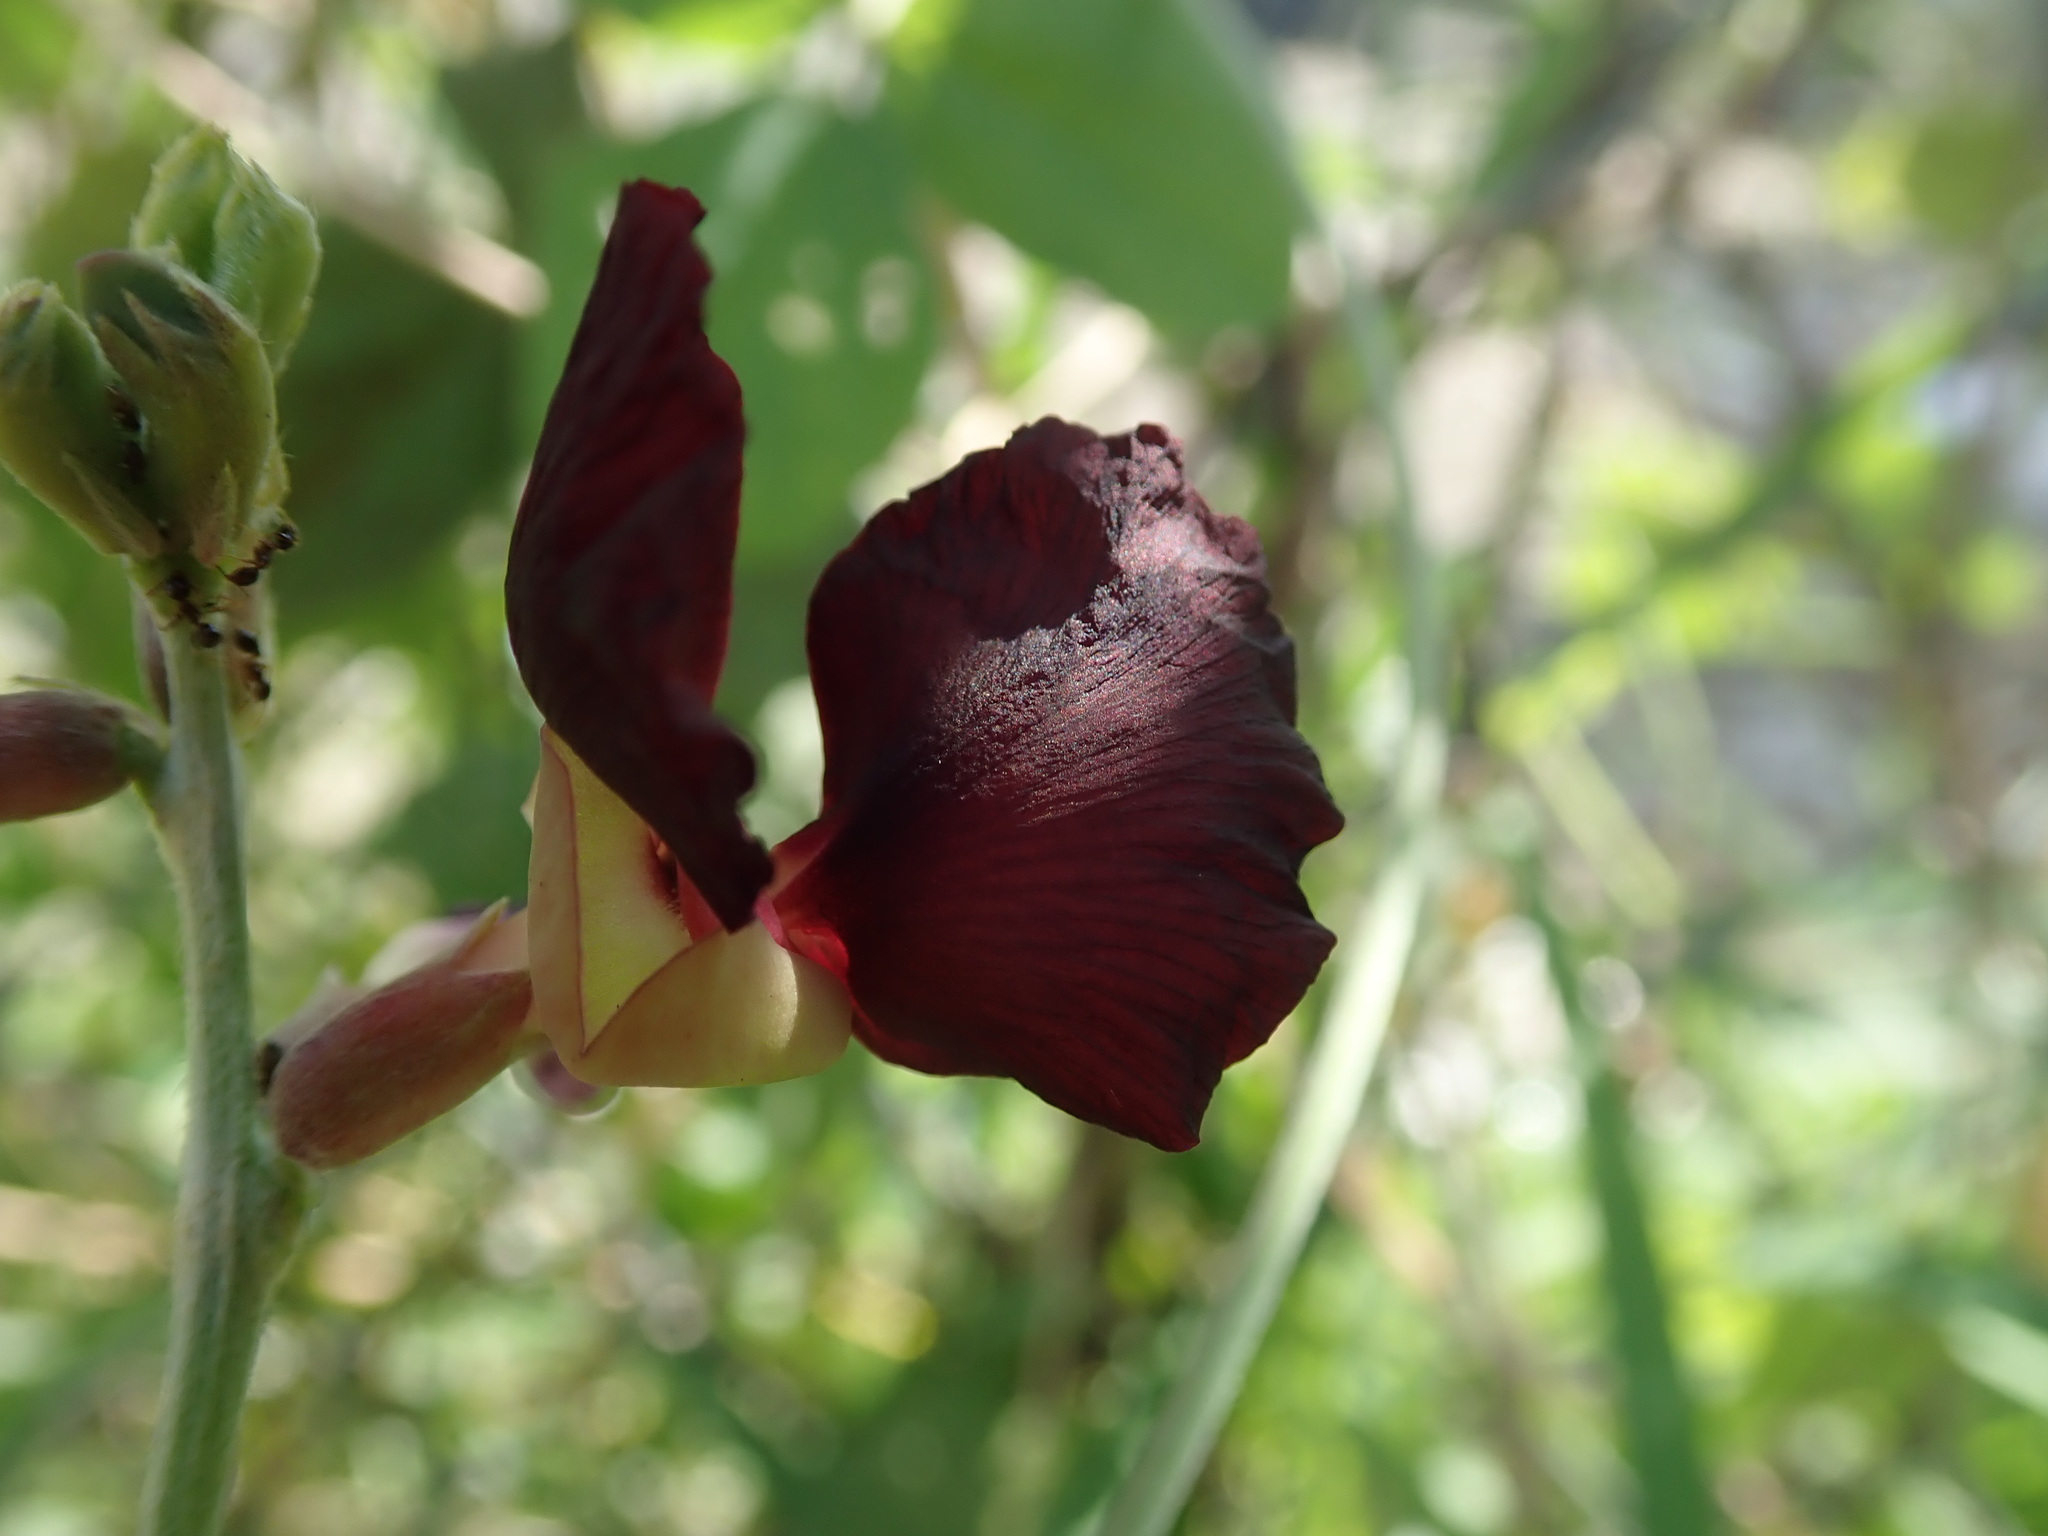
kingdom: Plantae
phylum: Tracheophyta
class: Magnoliopsida
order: Fabales
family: Fabaceae
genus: Macroptilium
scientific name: Macroptilium atropurpureum
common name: Purple bushbean
